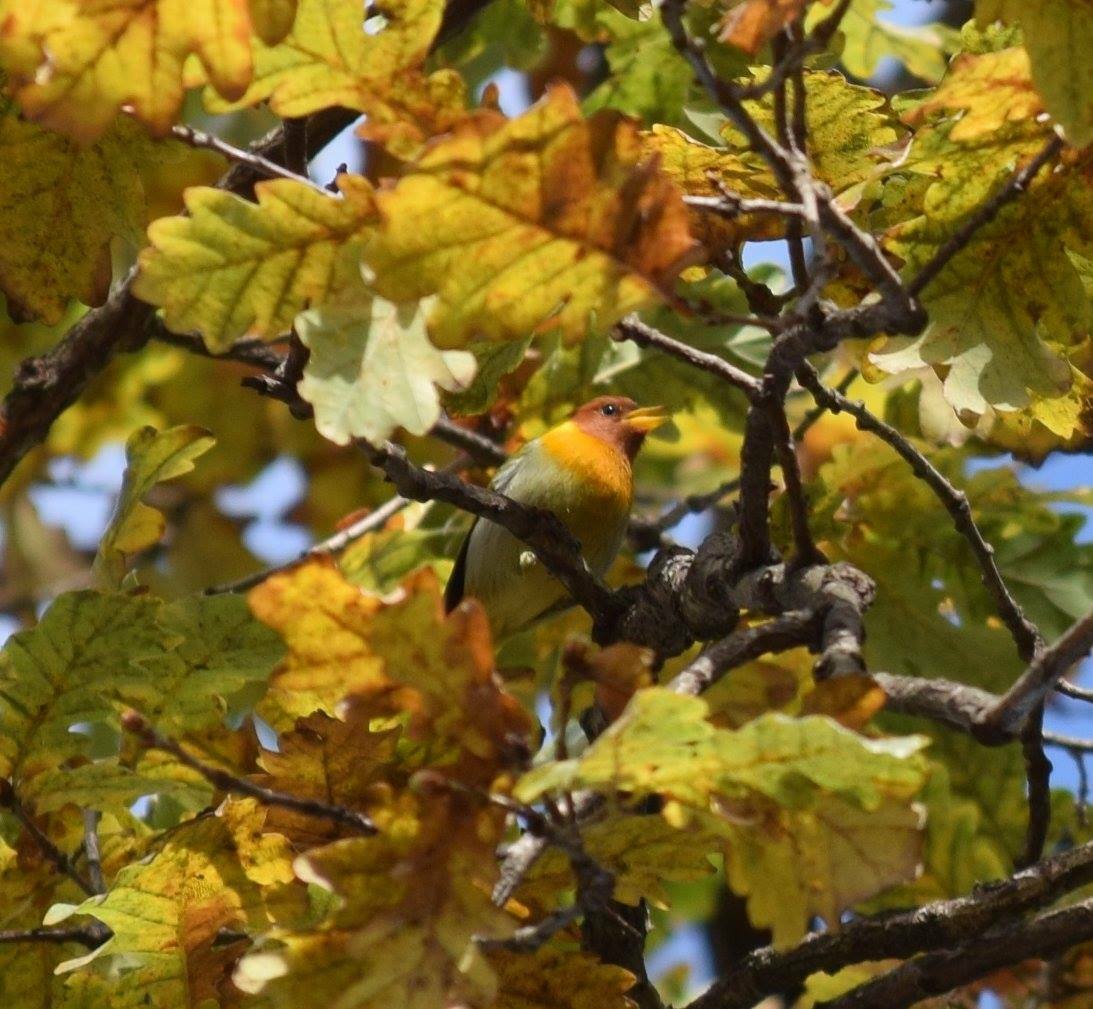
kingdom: Animalia
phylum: Chordata
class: Aves
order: Passeriformes
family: Thraupidae
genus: Hemithraupis
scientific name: Hemithraupis ruficapilla
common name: Rufous-headed tanager
